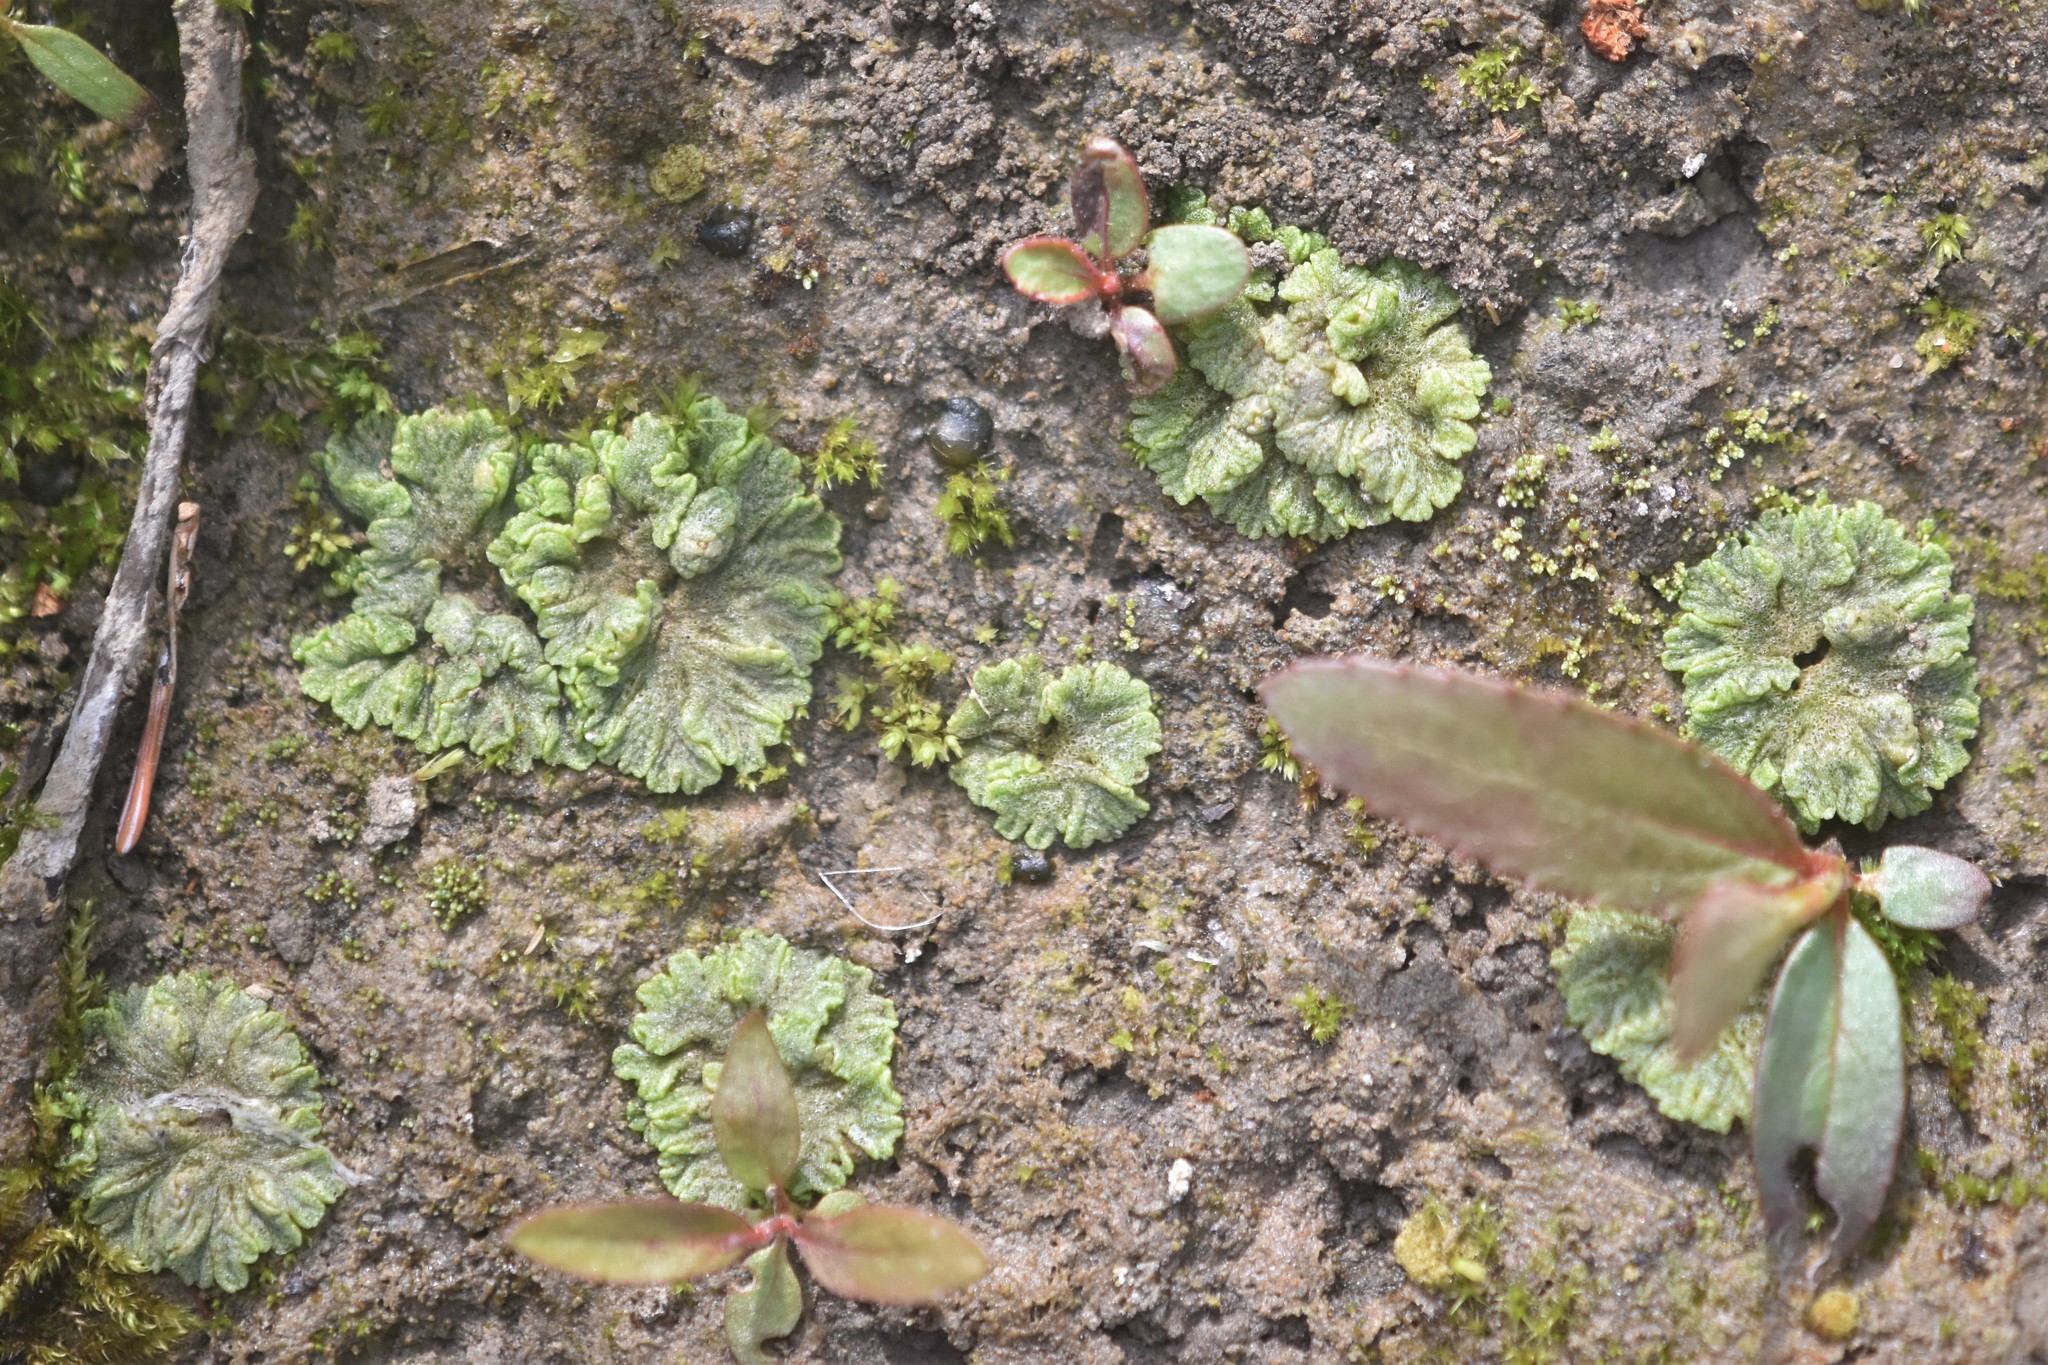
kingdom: Plantae
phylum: Marchantiophyta
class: Marchantiopsida
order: Marchantiales
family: Ricciaceae
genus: Riccia
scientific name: Riccia cavernosa
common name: Cavernous crystalwort
